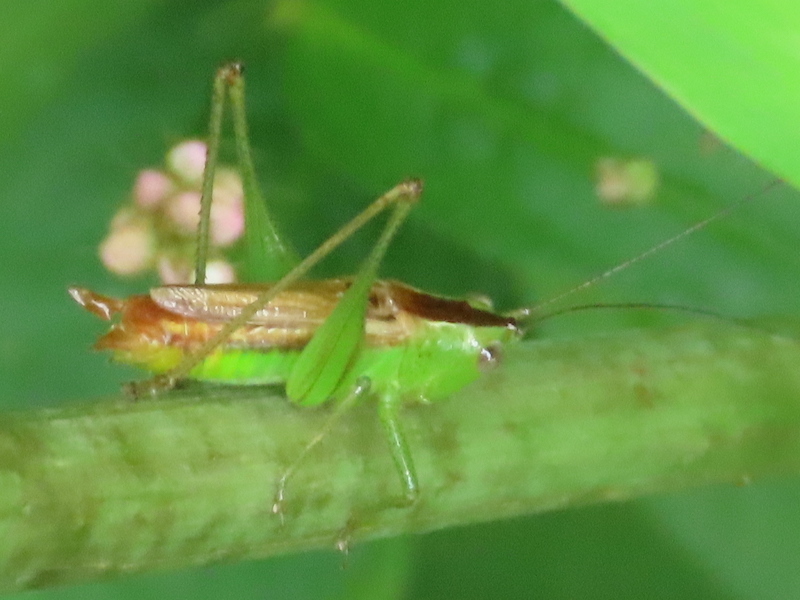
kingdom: Animalia
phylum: Arthropoda
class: Insecta
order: Orthoptera
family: Tettigoniidae
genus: Conocephalus
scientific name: Conocephalus brevipennis
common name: Short-winged meadow katydid
